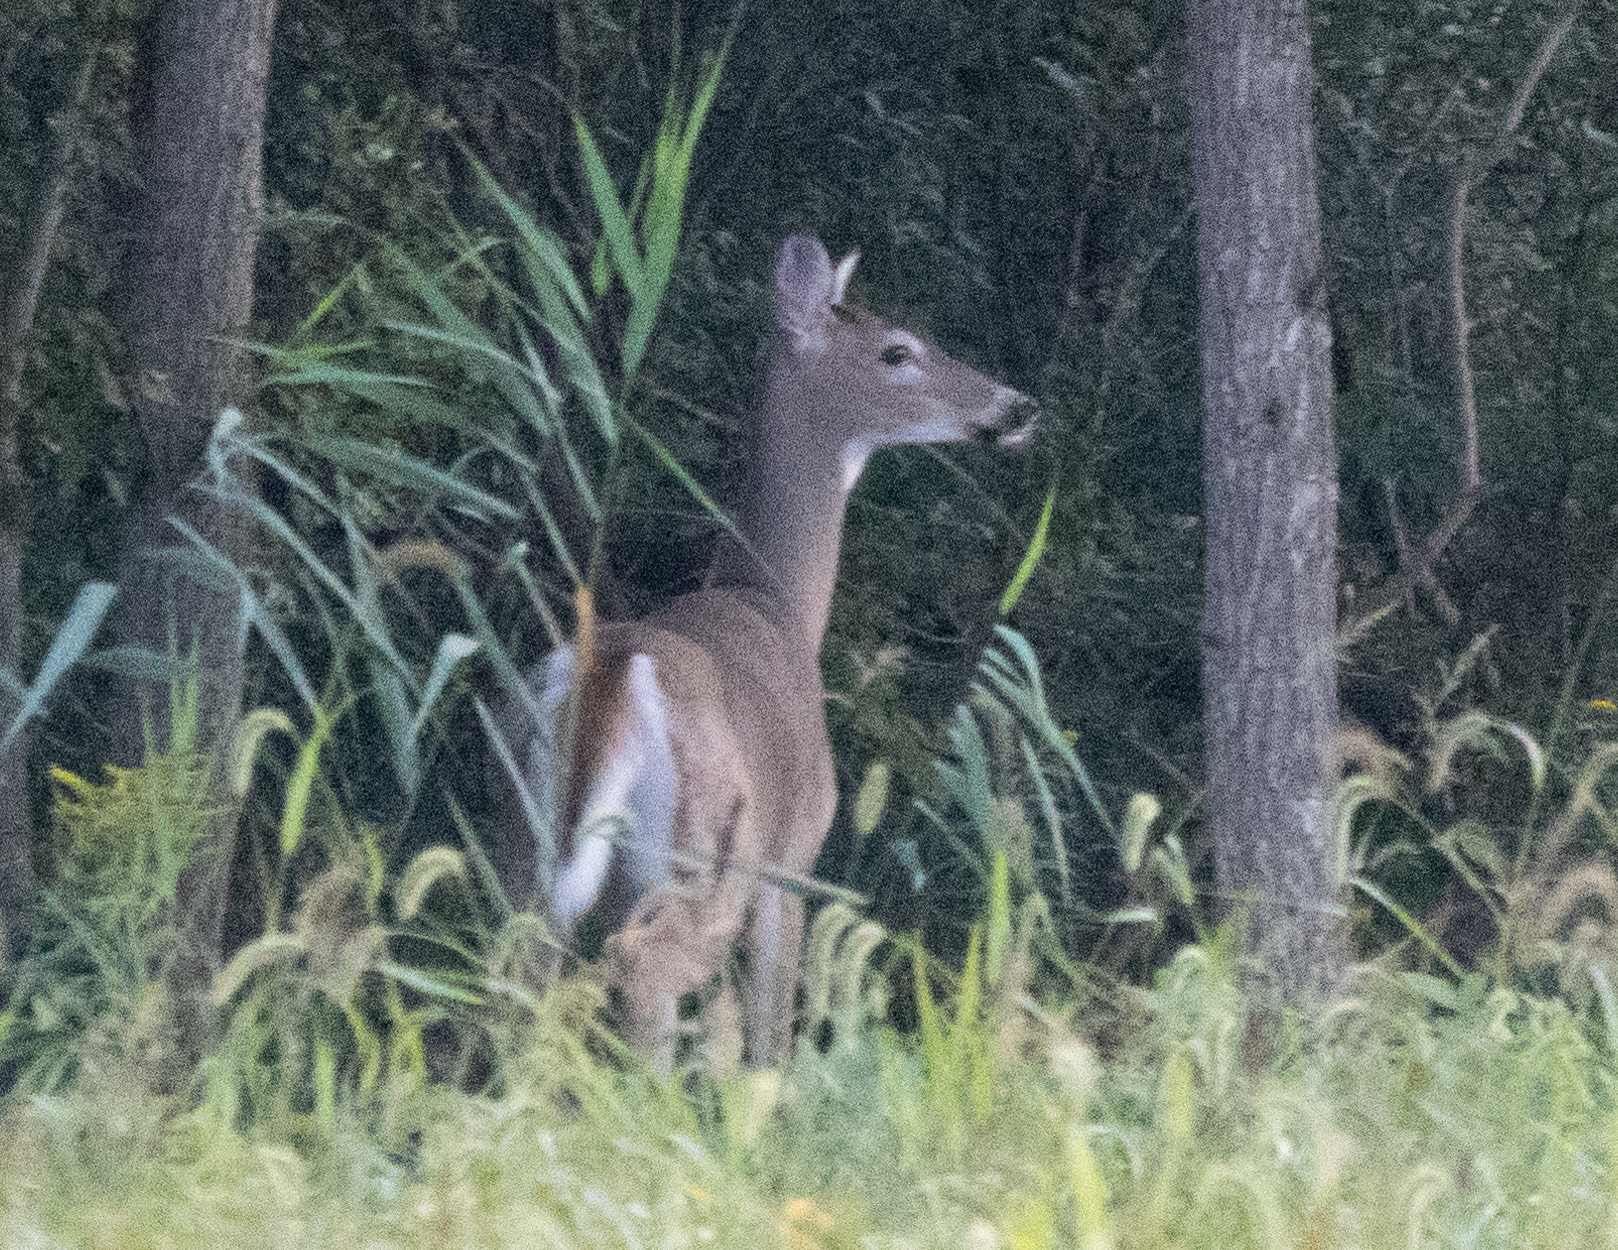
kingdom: Animalia
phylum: Chordata
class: Mammalia
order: Artiodactyla
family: Cervidae
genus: Odocoileus
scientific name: Odocoileus virginianus
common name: White-tailed deer
